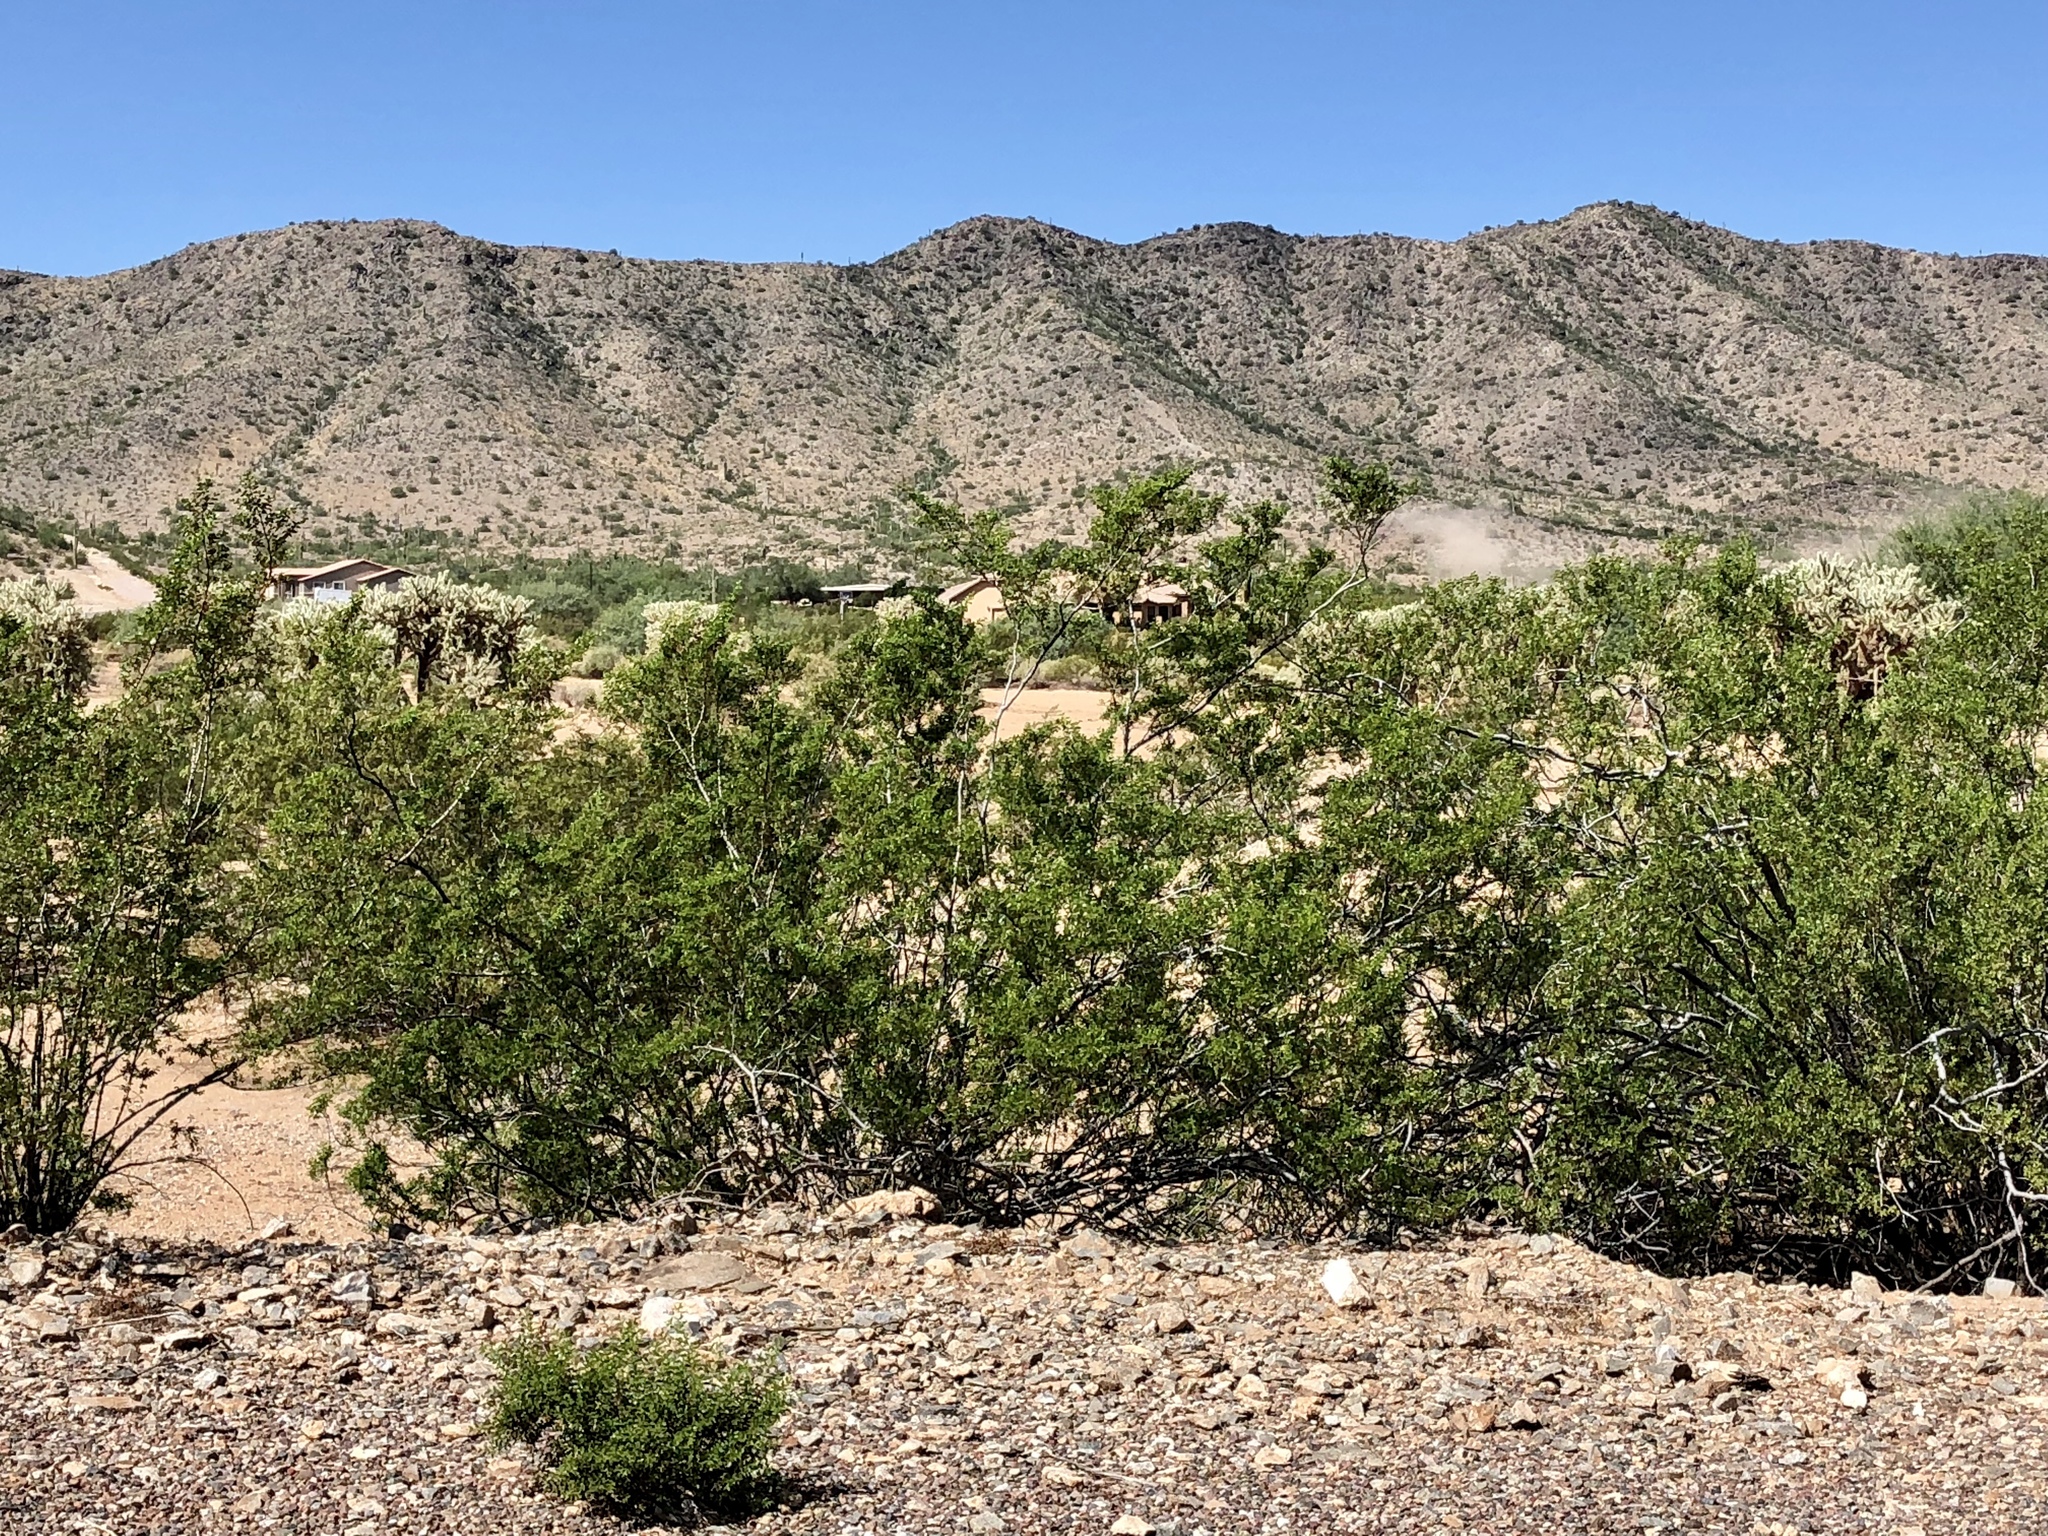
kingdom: Plantae
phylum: Tracheophyta
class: Magnoliopsida
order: Zygophyllales
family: Zygophyllaceae
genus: Larrea
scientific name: Larrea tridentata
